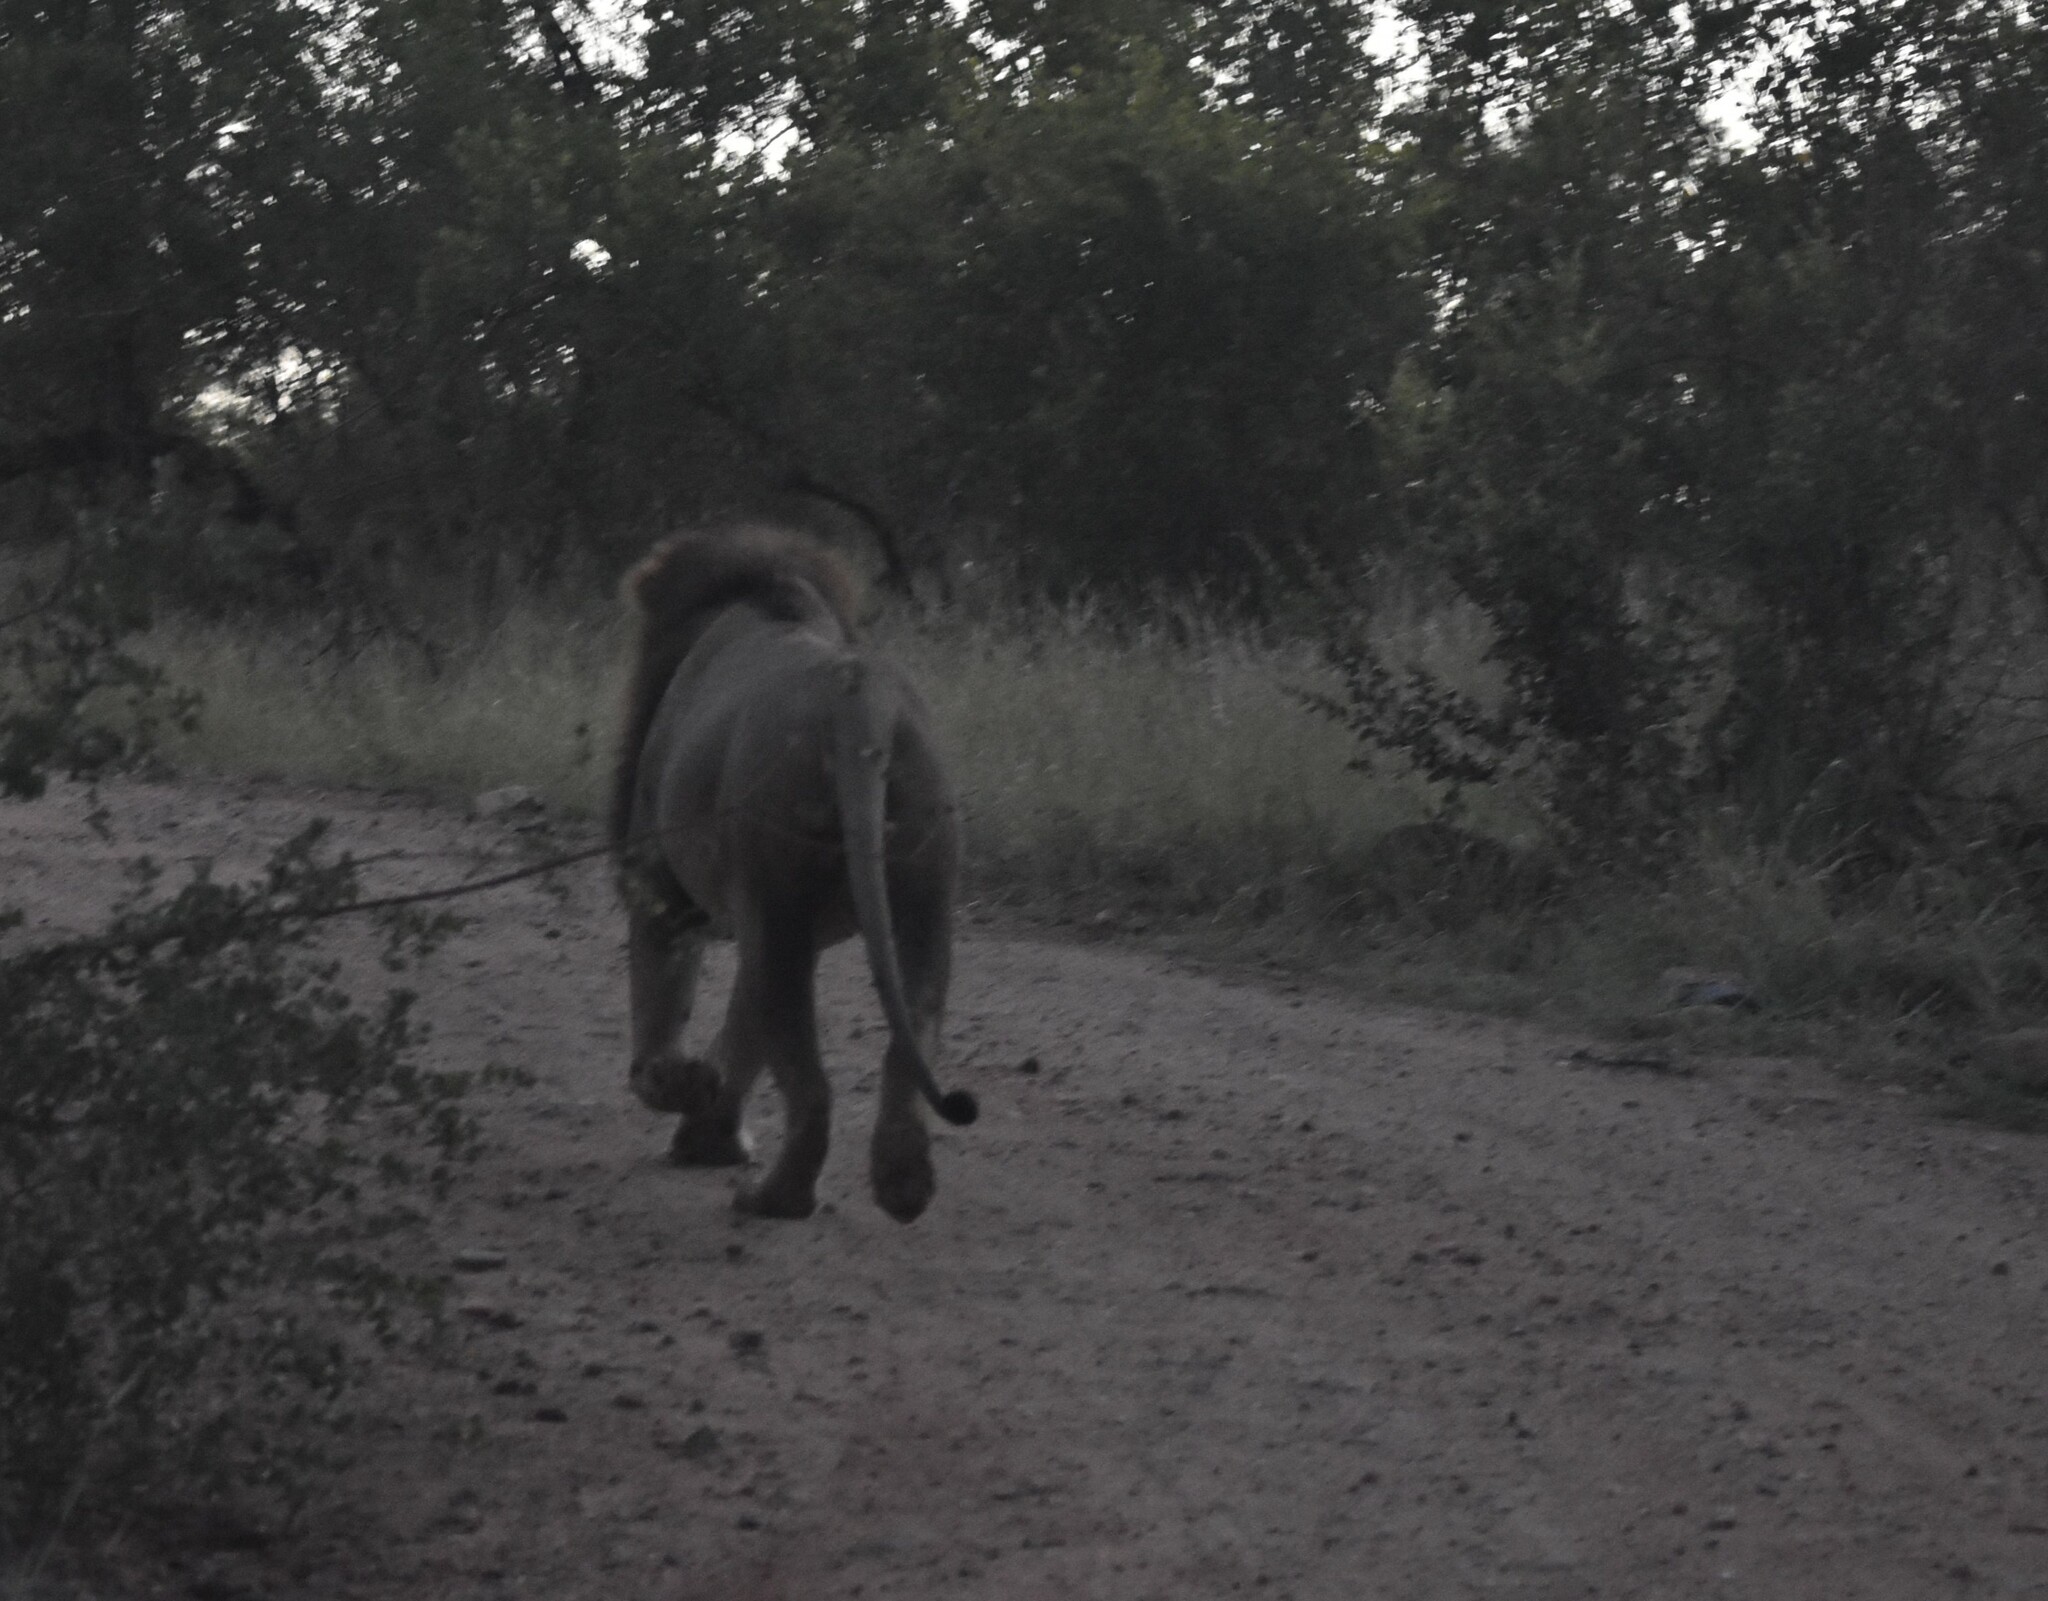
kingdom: Animalia
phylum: Chordata
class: Mammalia
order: Carnivora
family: Felidae
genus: Panthera
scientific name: Panthera leo
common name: Lion
